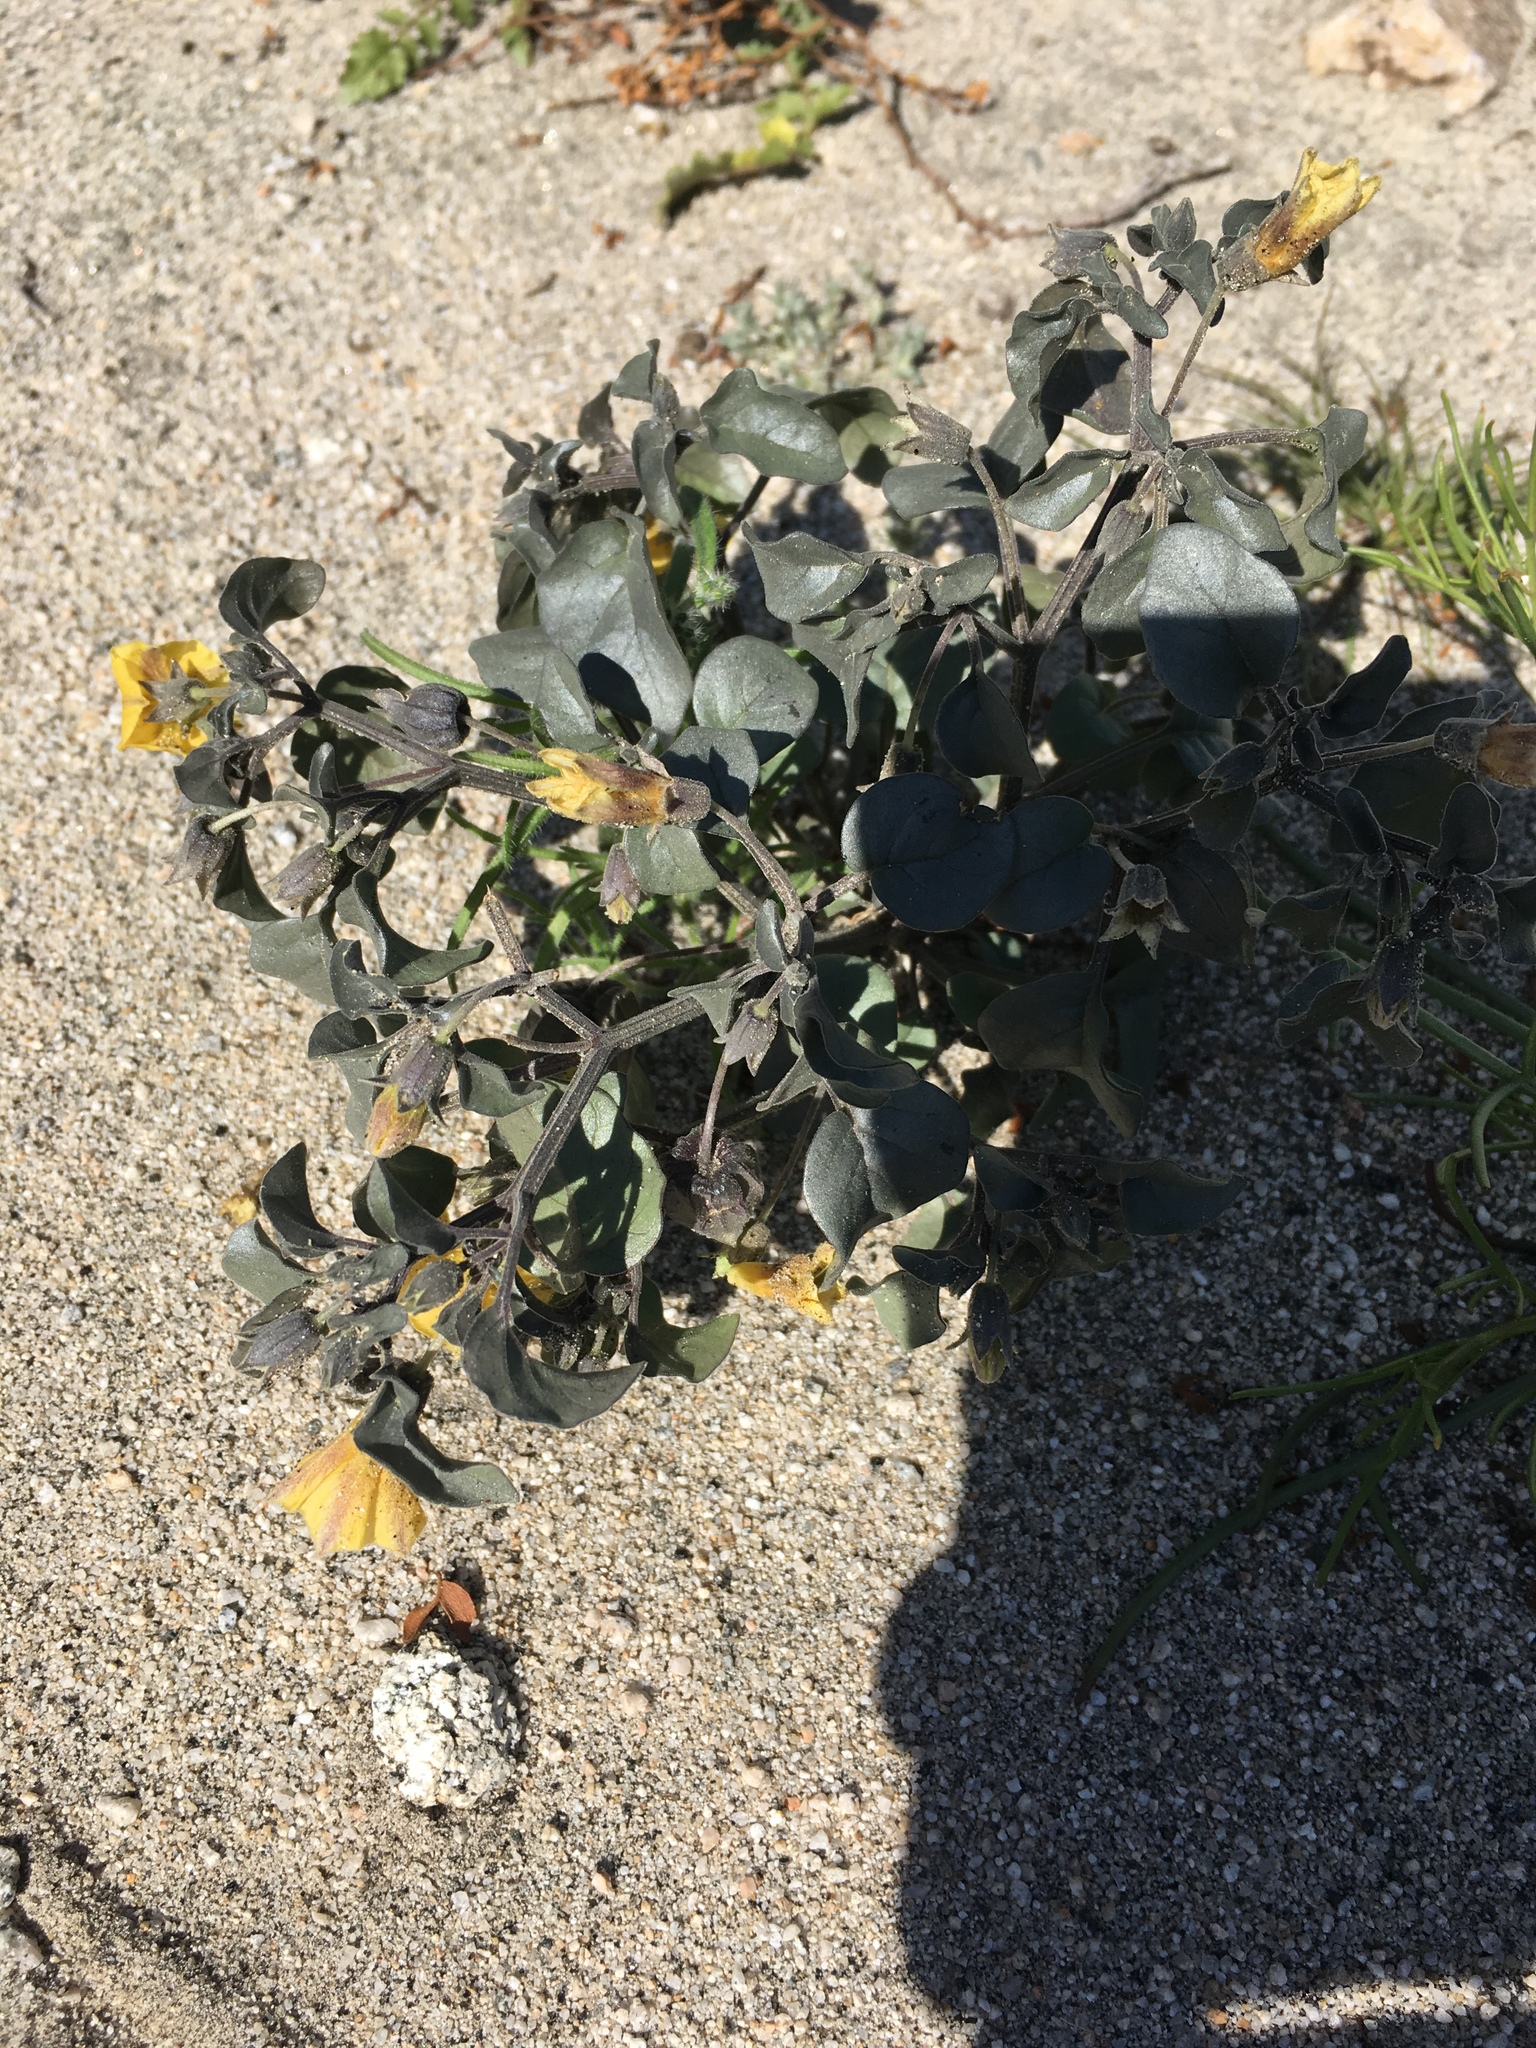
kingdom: Plantae
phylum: Tracheophyta
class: Magnoliopsida
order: Solanales
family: Solanaceae
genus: Physalis
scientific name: Physalis crassifolia
